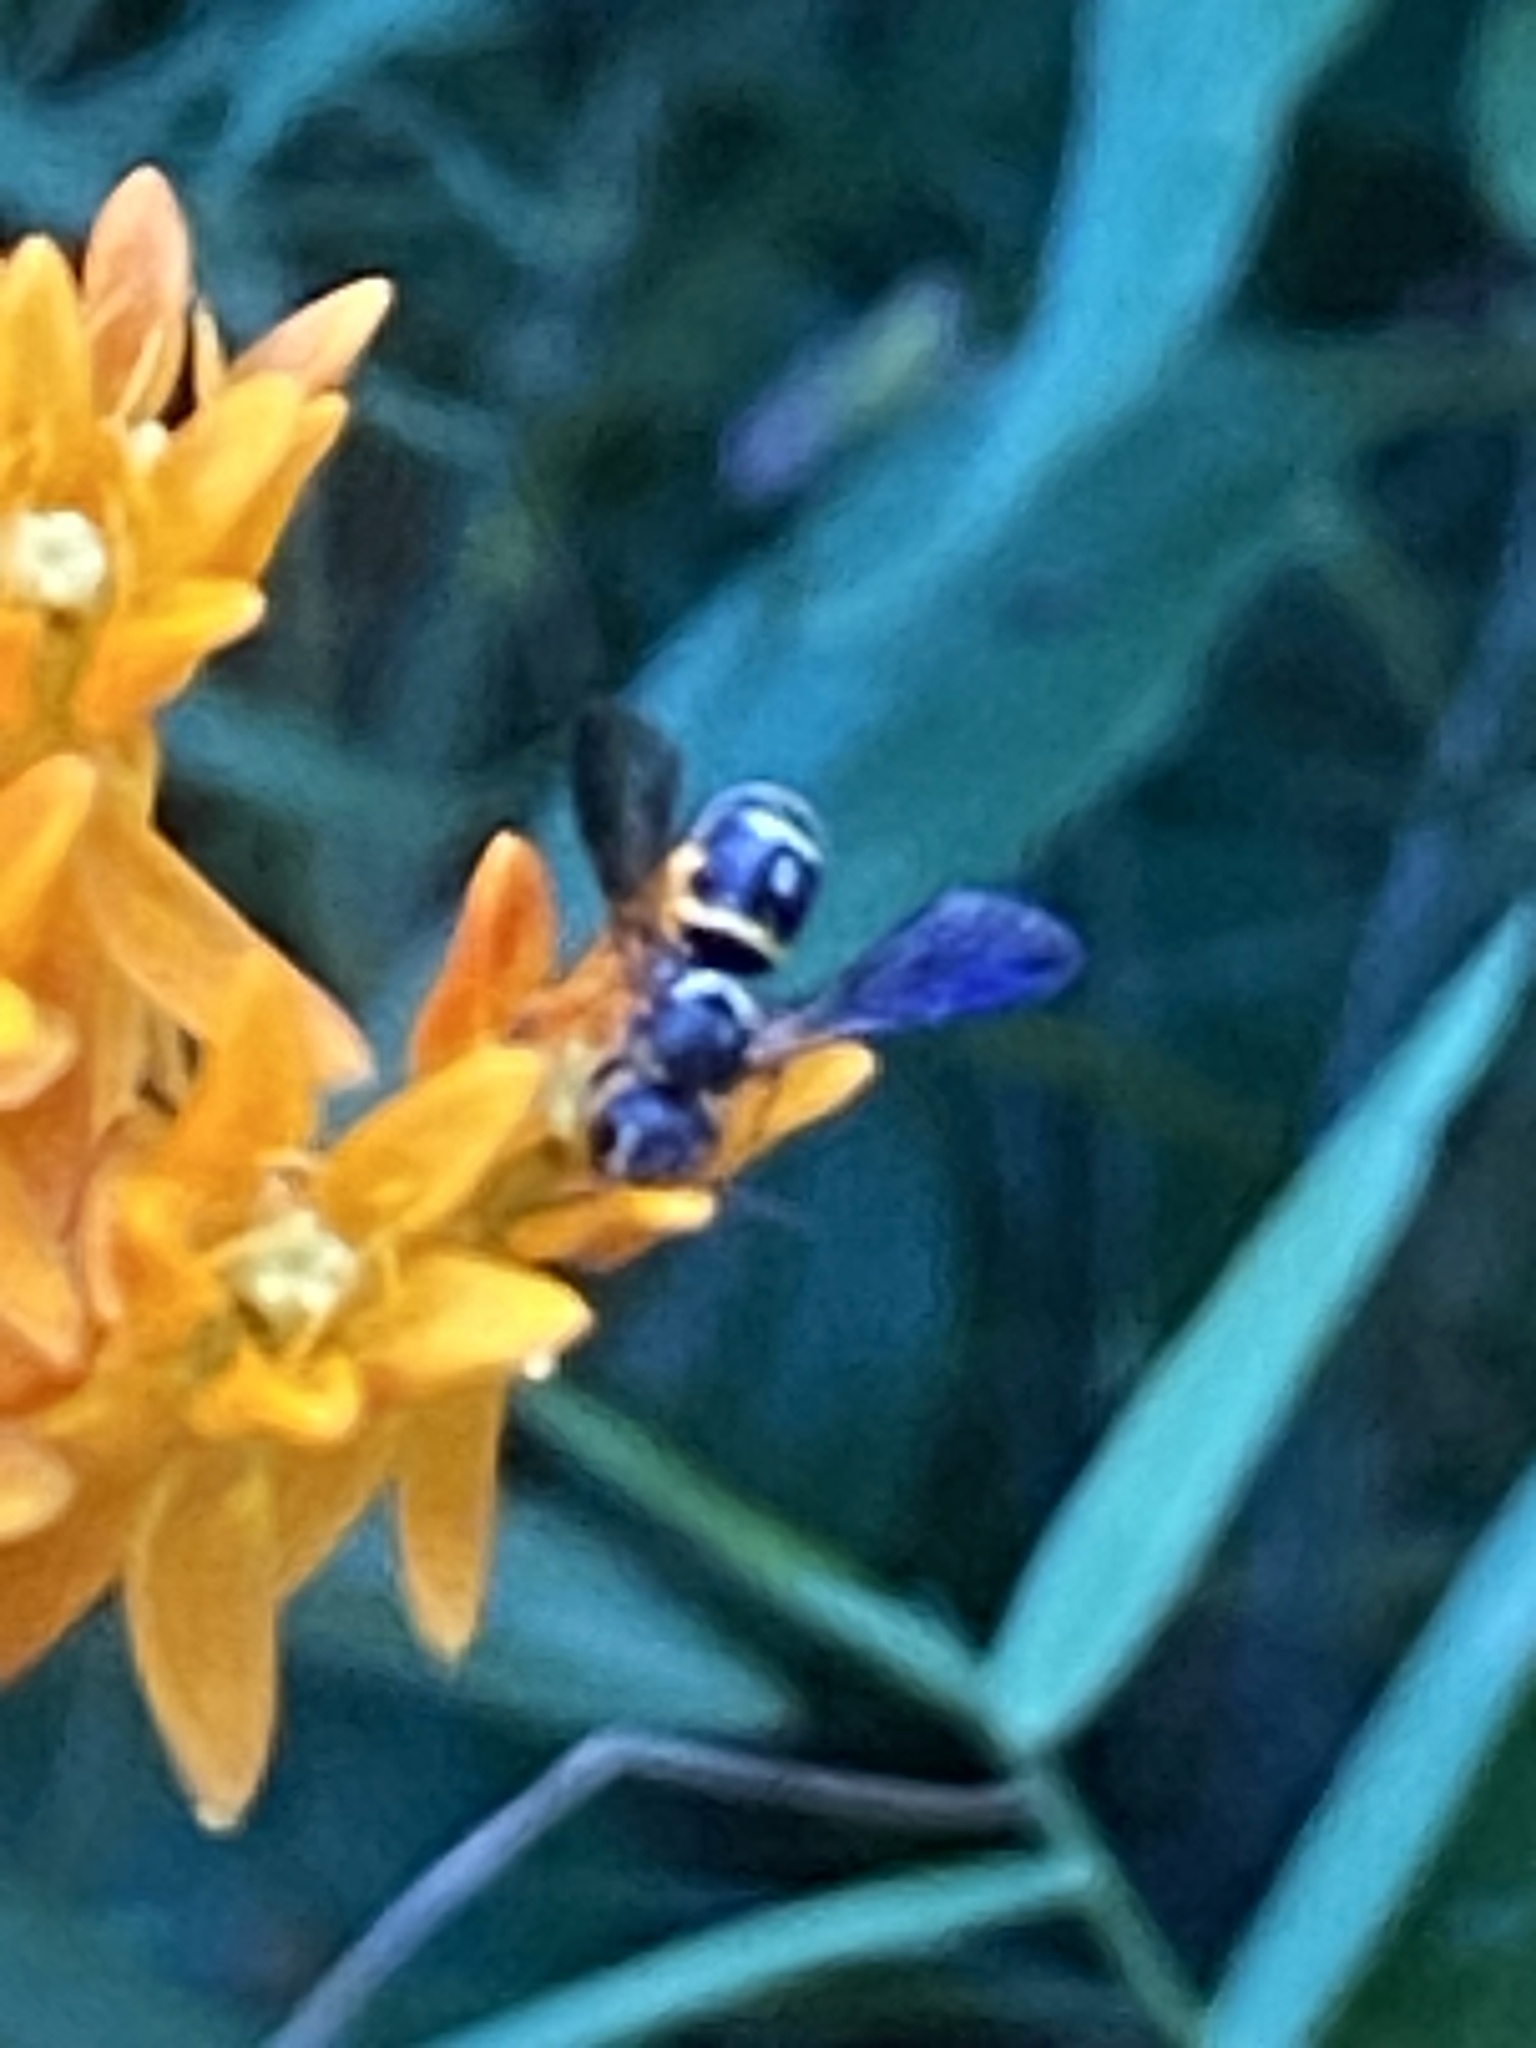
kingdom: Animalia
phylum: Arthropoda
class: Insecta
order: Hymenoptera
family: Megachilidae
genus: Stelis
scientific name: Stelis louisae
